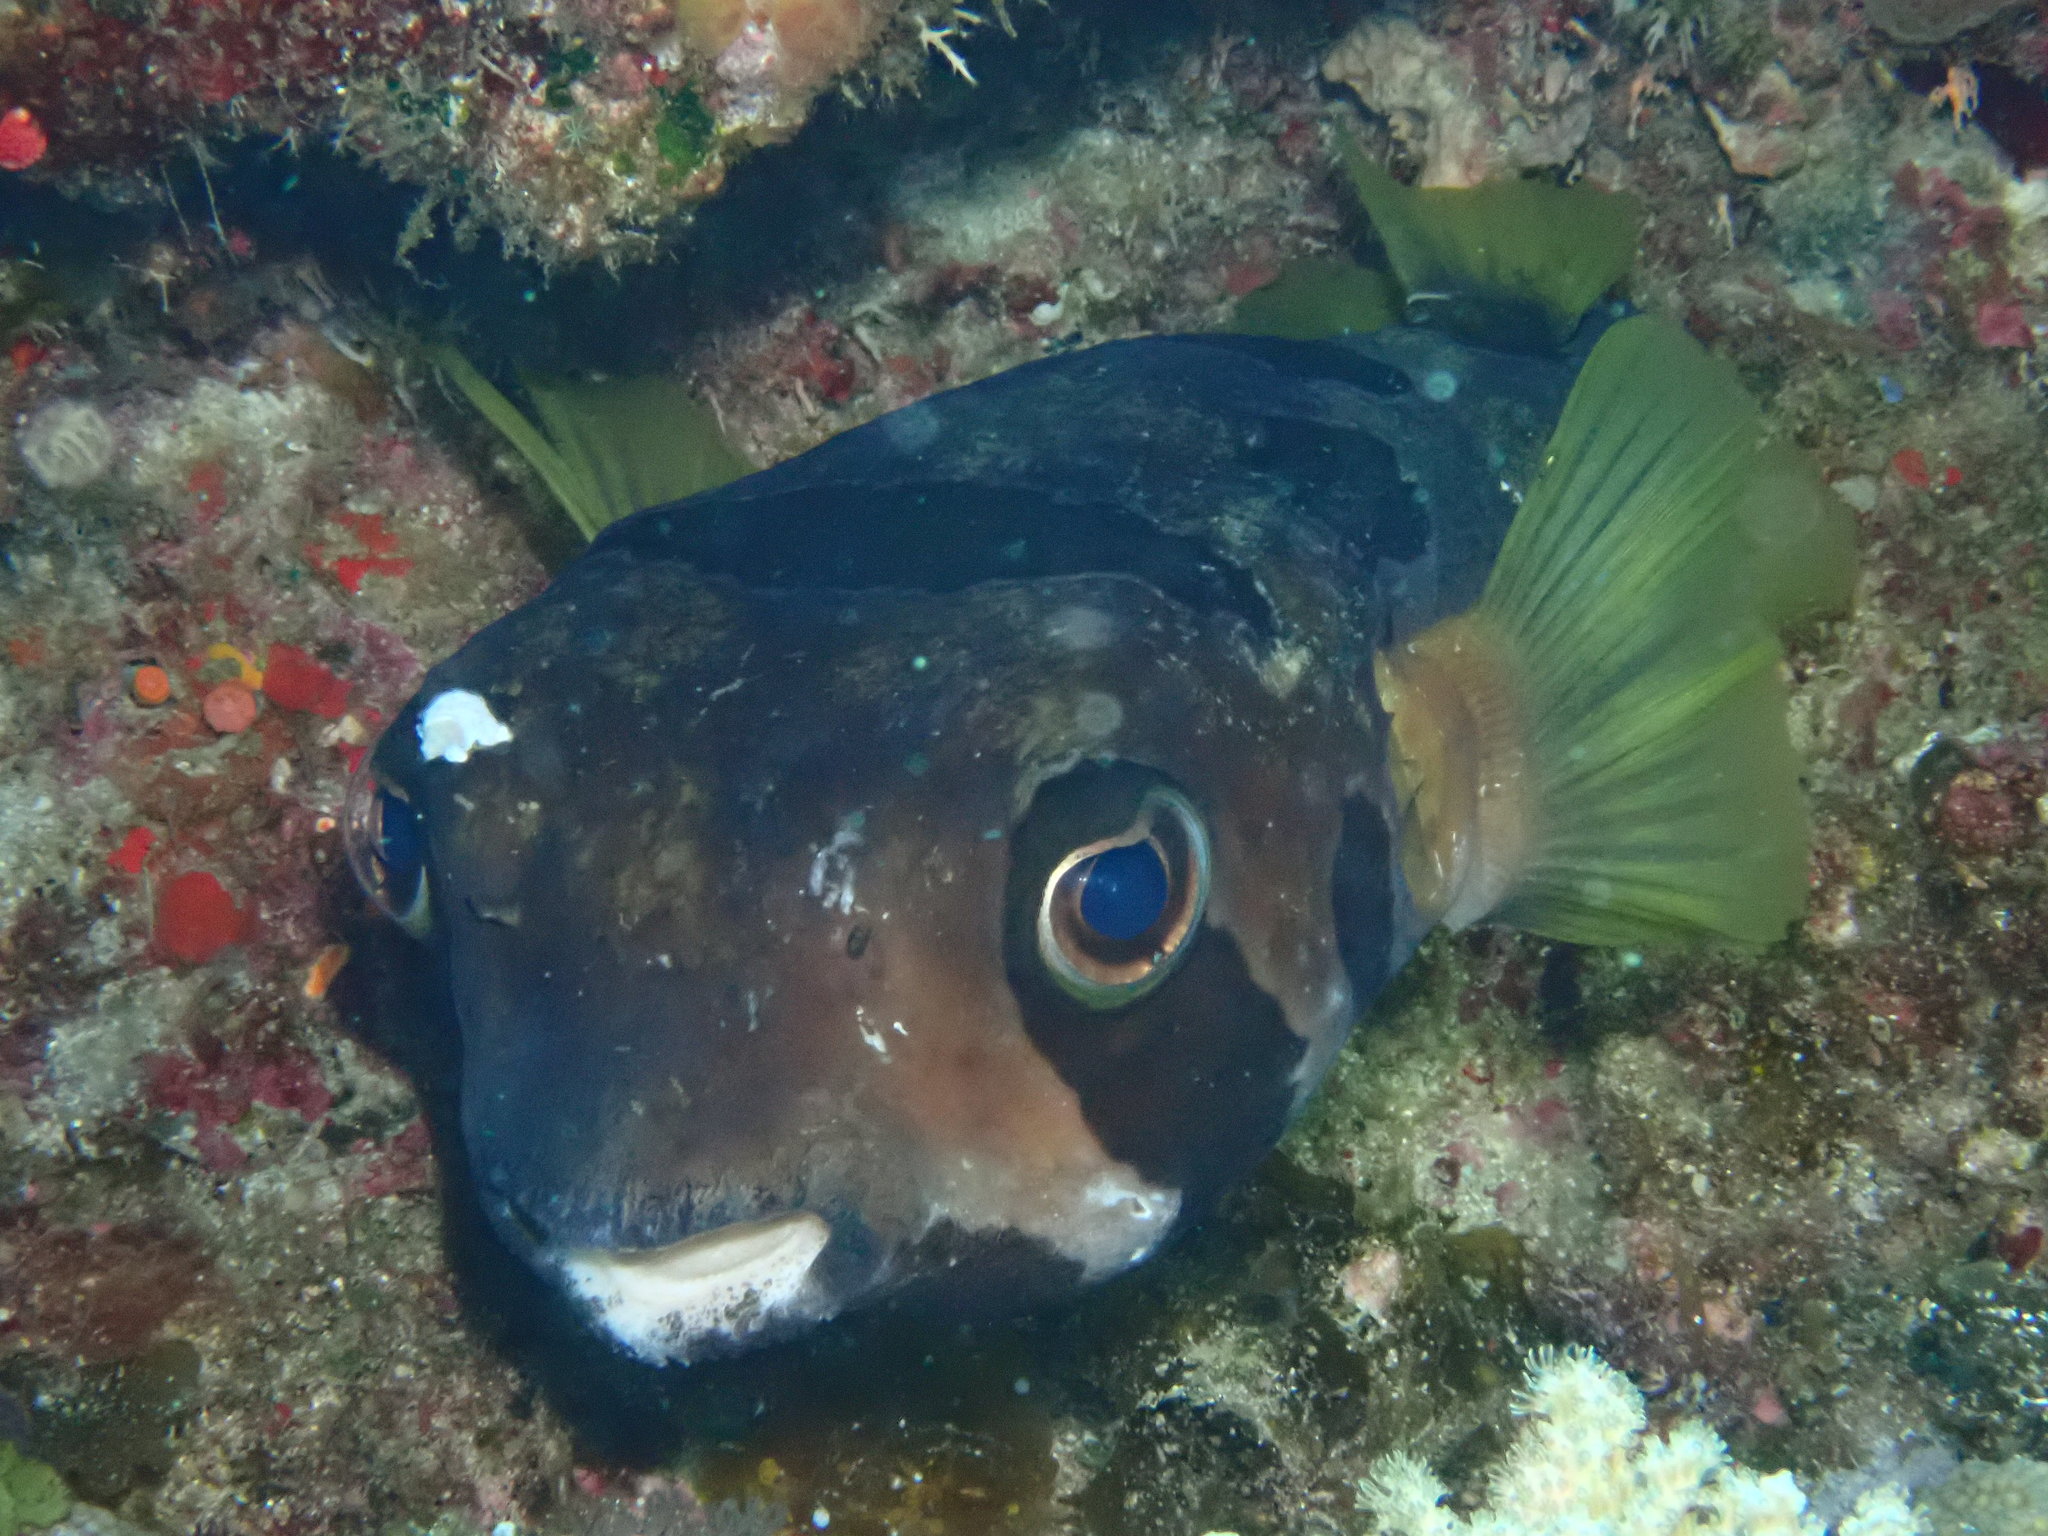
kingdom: Animalia
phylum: Chordata
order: Tetraodontiformes
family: Diodontidae
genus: Diodon
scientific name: Diodon liturosus
